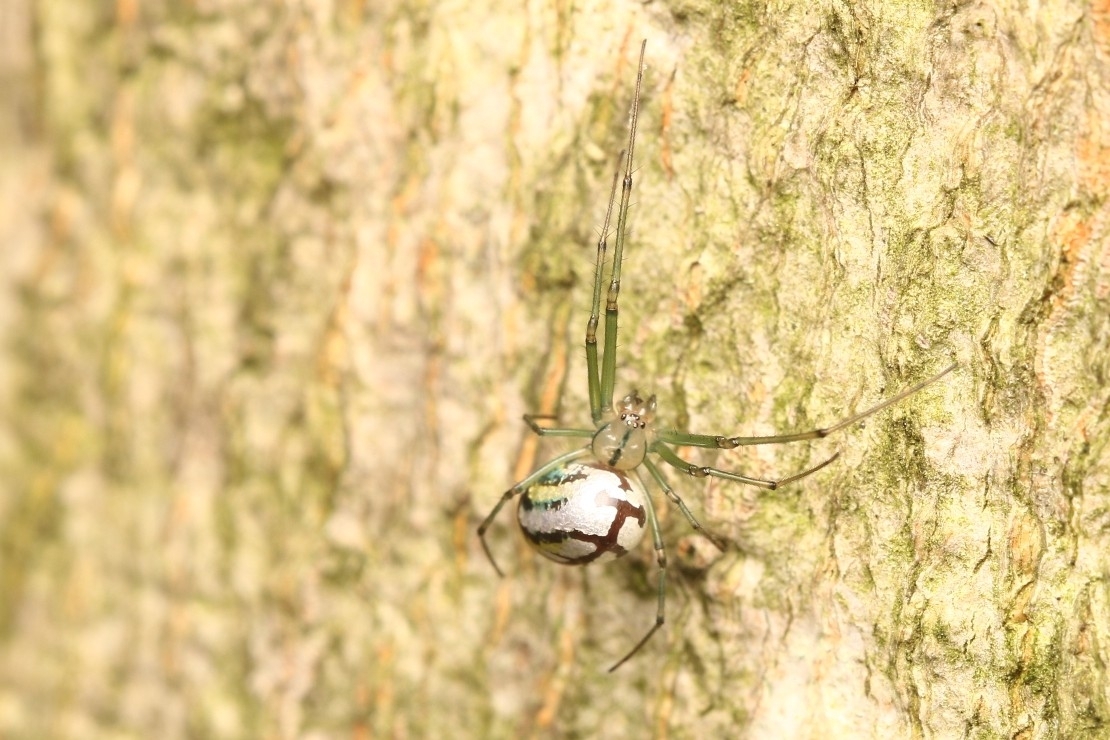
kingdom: Animalia
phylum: Arthropoda
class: Arachnida
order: Araneae
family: Tetragnathidae
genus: Leucauge
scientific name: Leucauge venusta
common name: Longjawed orb weavers
